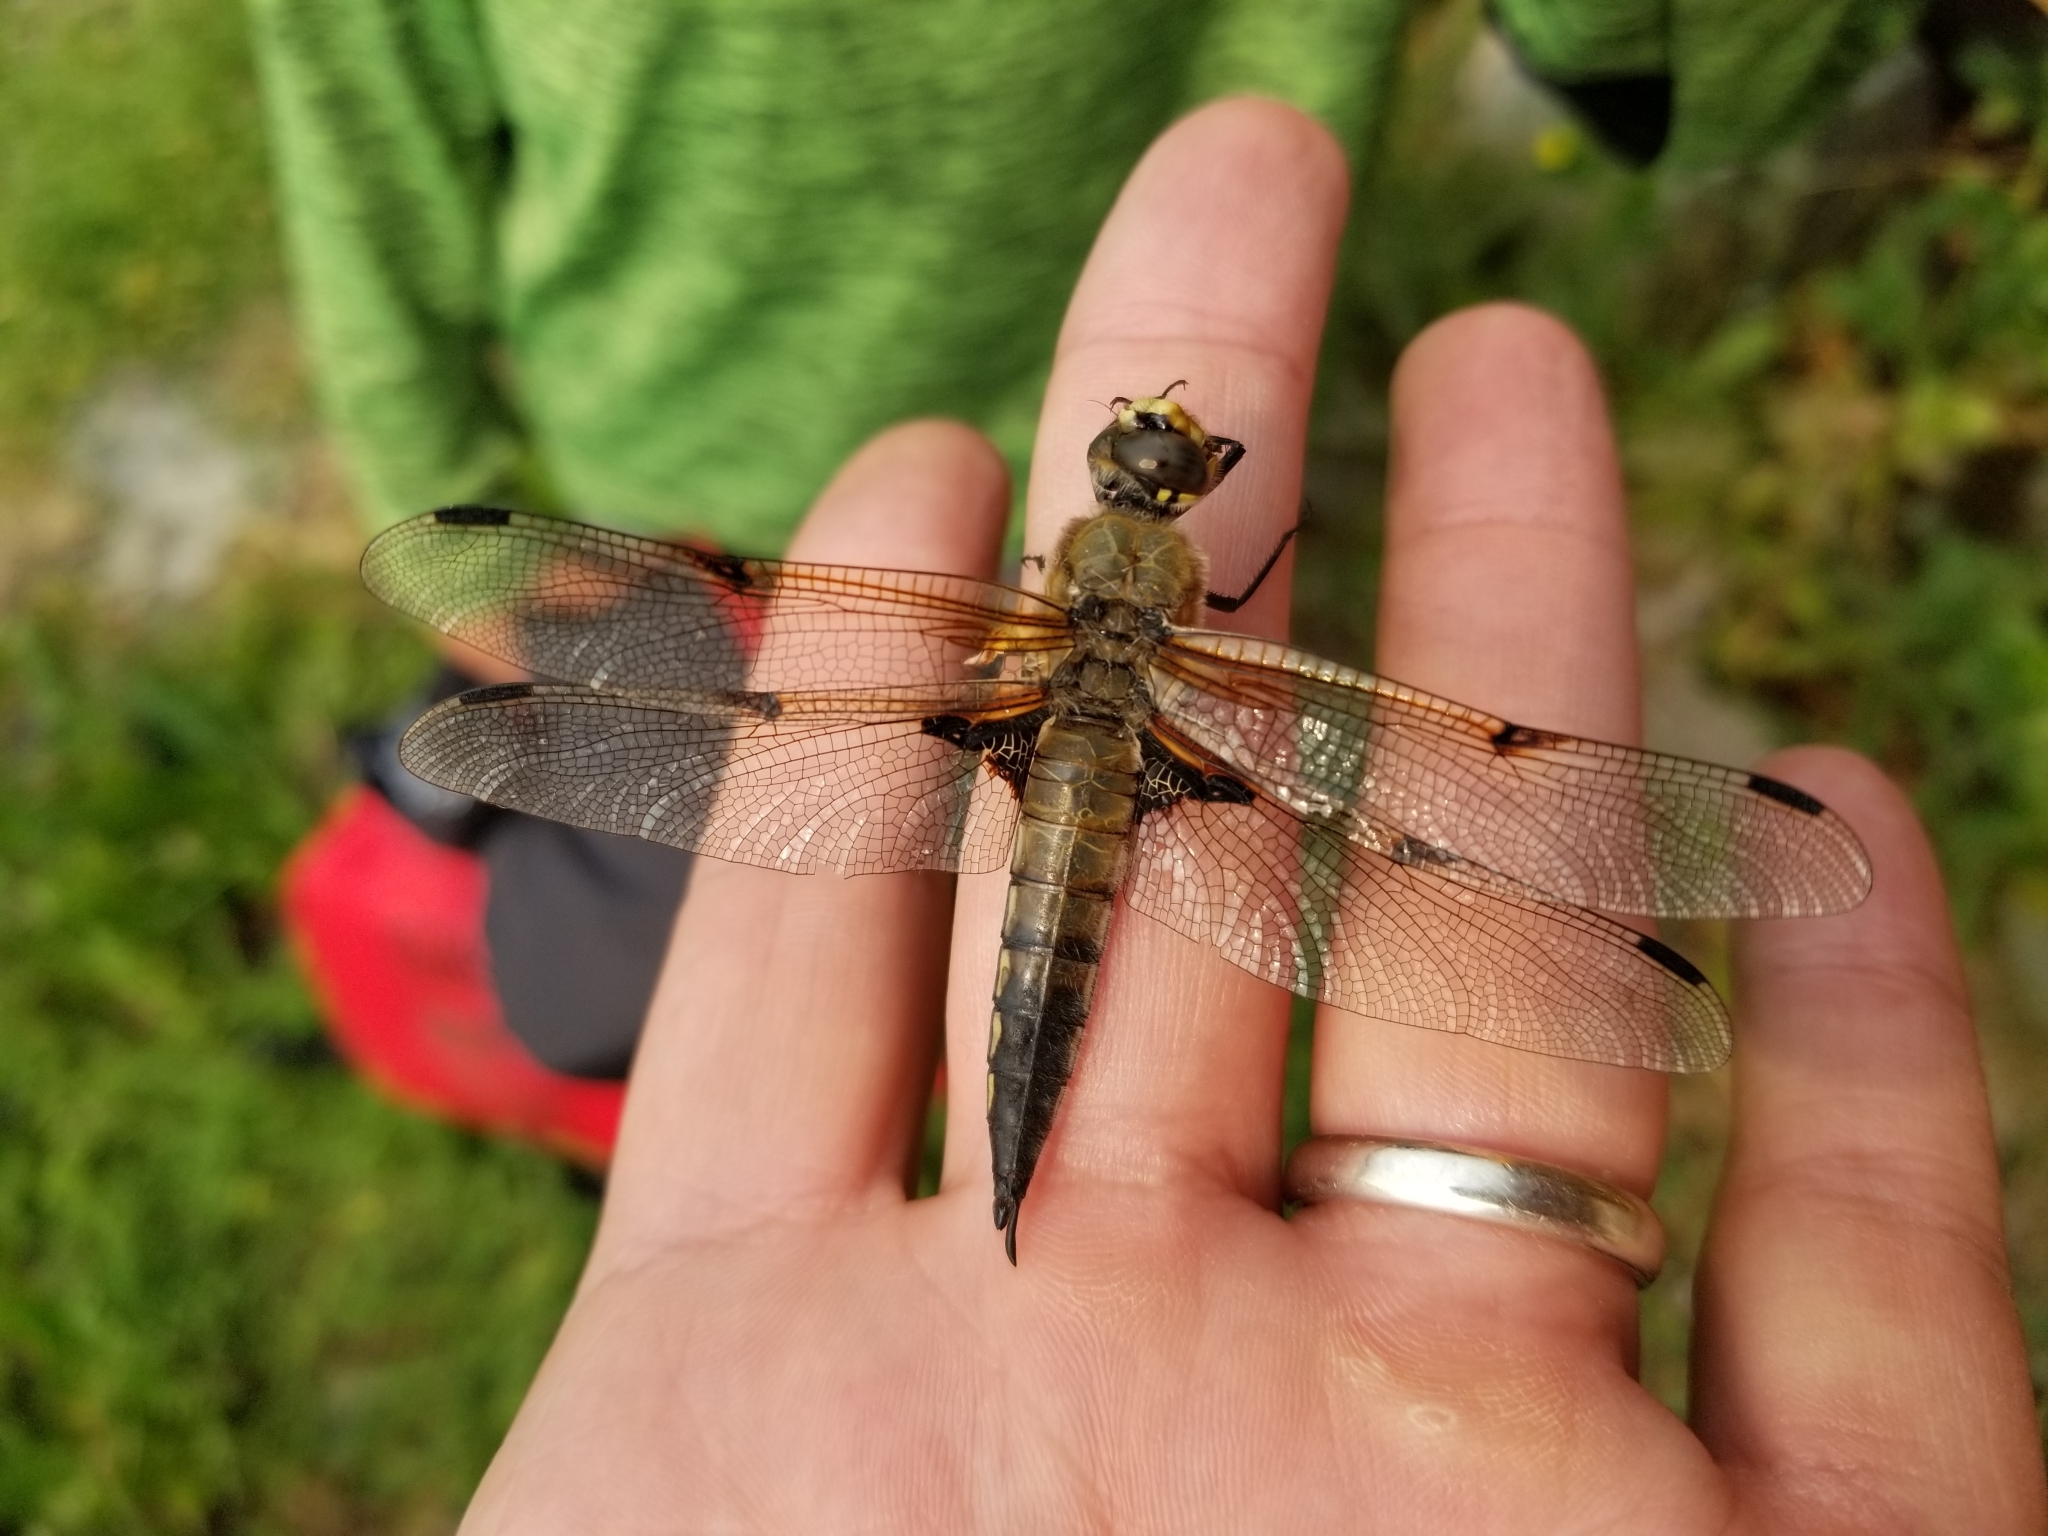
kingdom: Animalia
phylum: Arthropoda
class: Insecta
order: Odonata
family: Libellulidae
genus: Libellula
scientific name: Libellula quadrimaculata
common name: Four-spotted chaser
